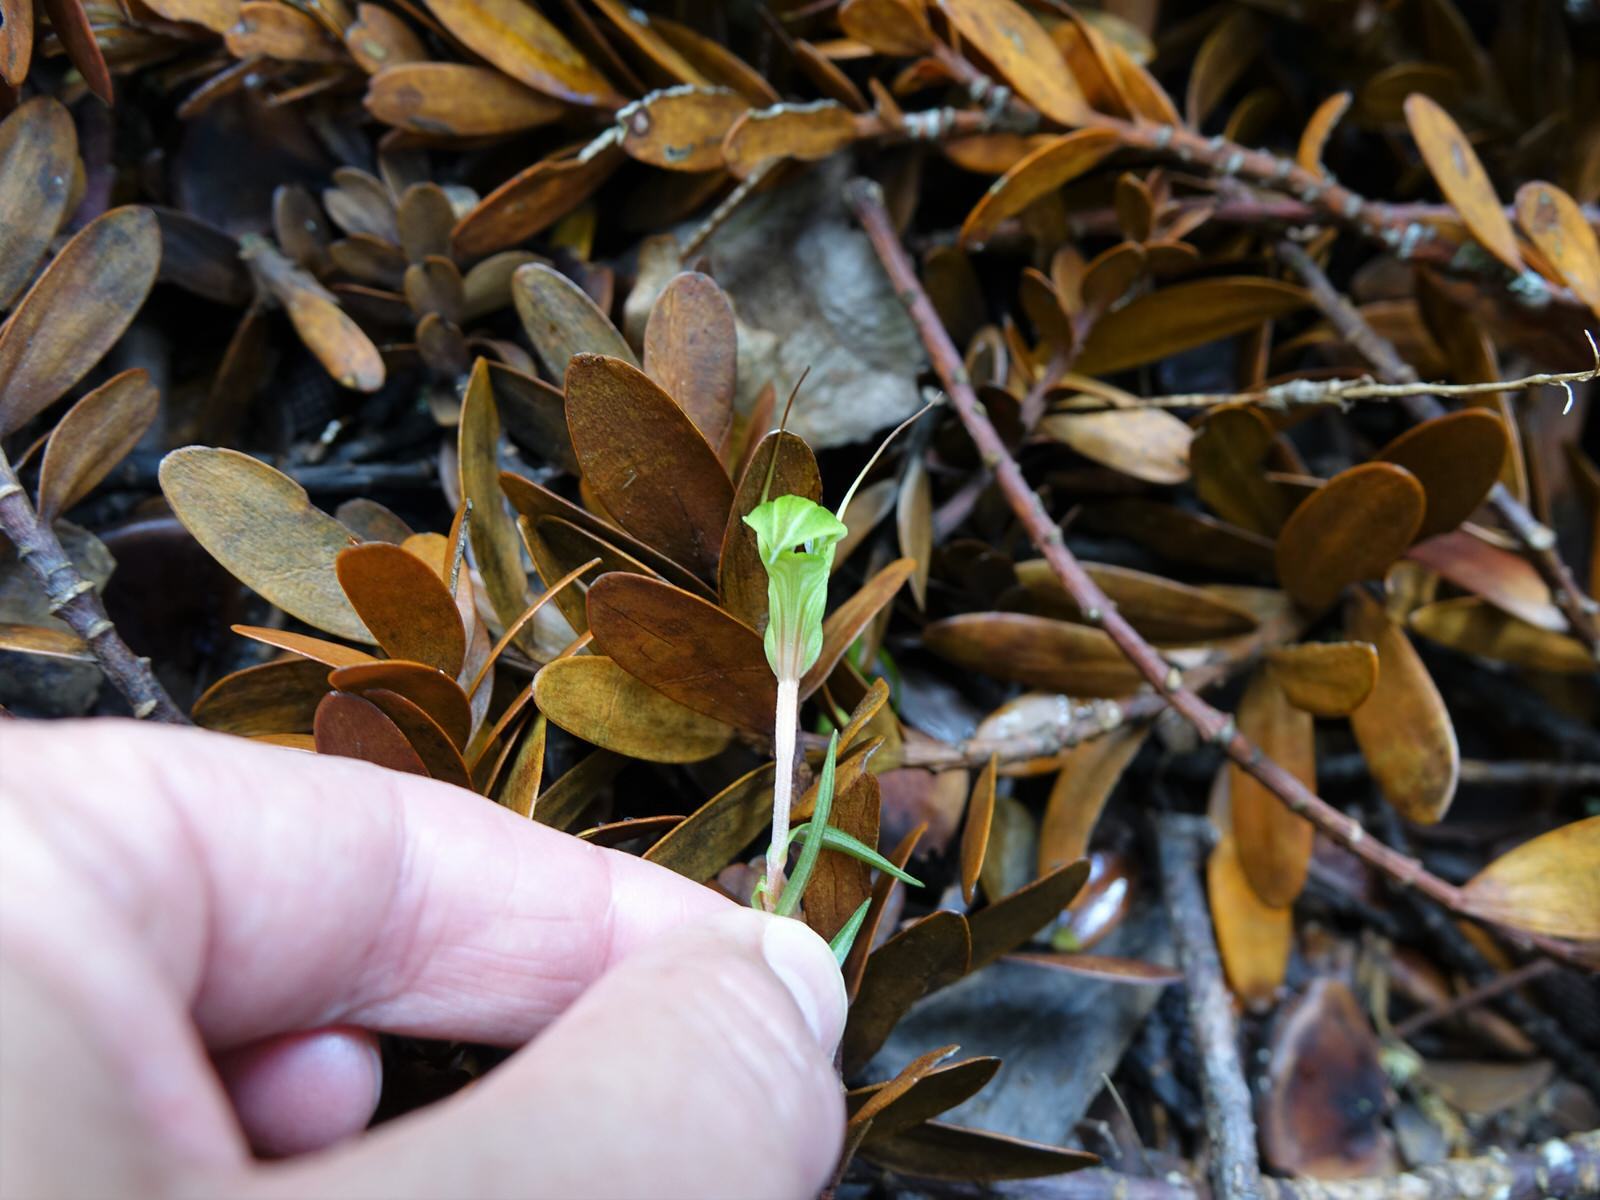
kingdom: Plantae
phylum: Tracheophyta
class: Liliopsida
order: Asparagales
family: Orchidaceae
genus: Pterostylis
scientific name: Pterostylis brumalis
